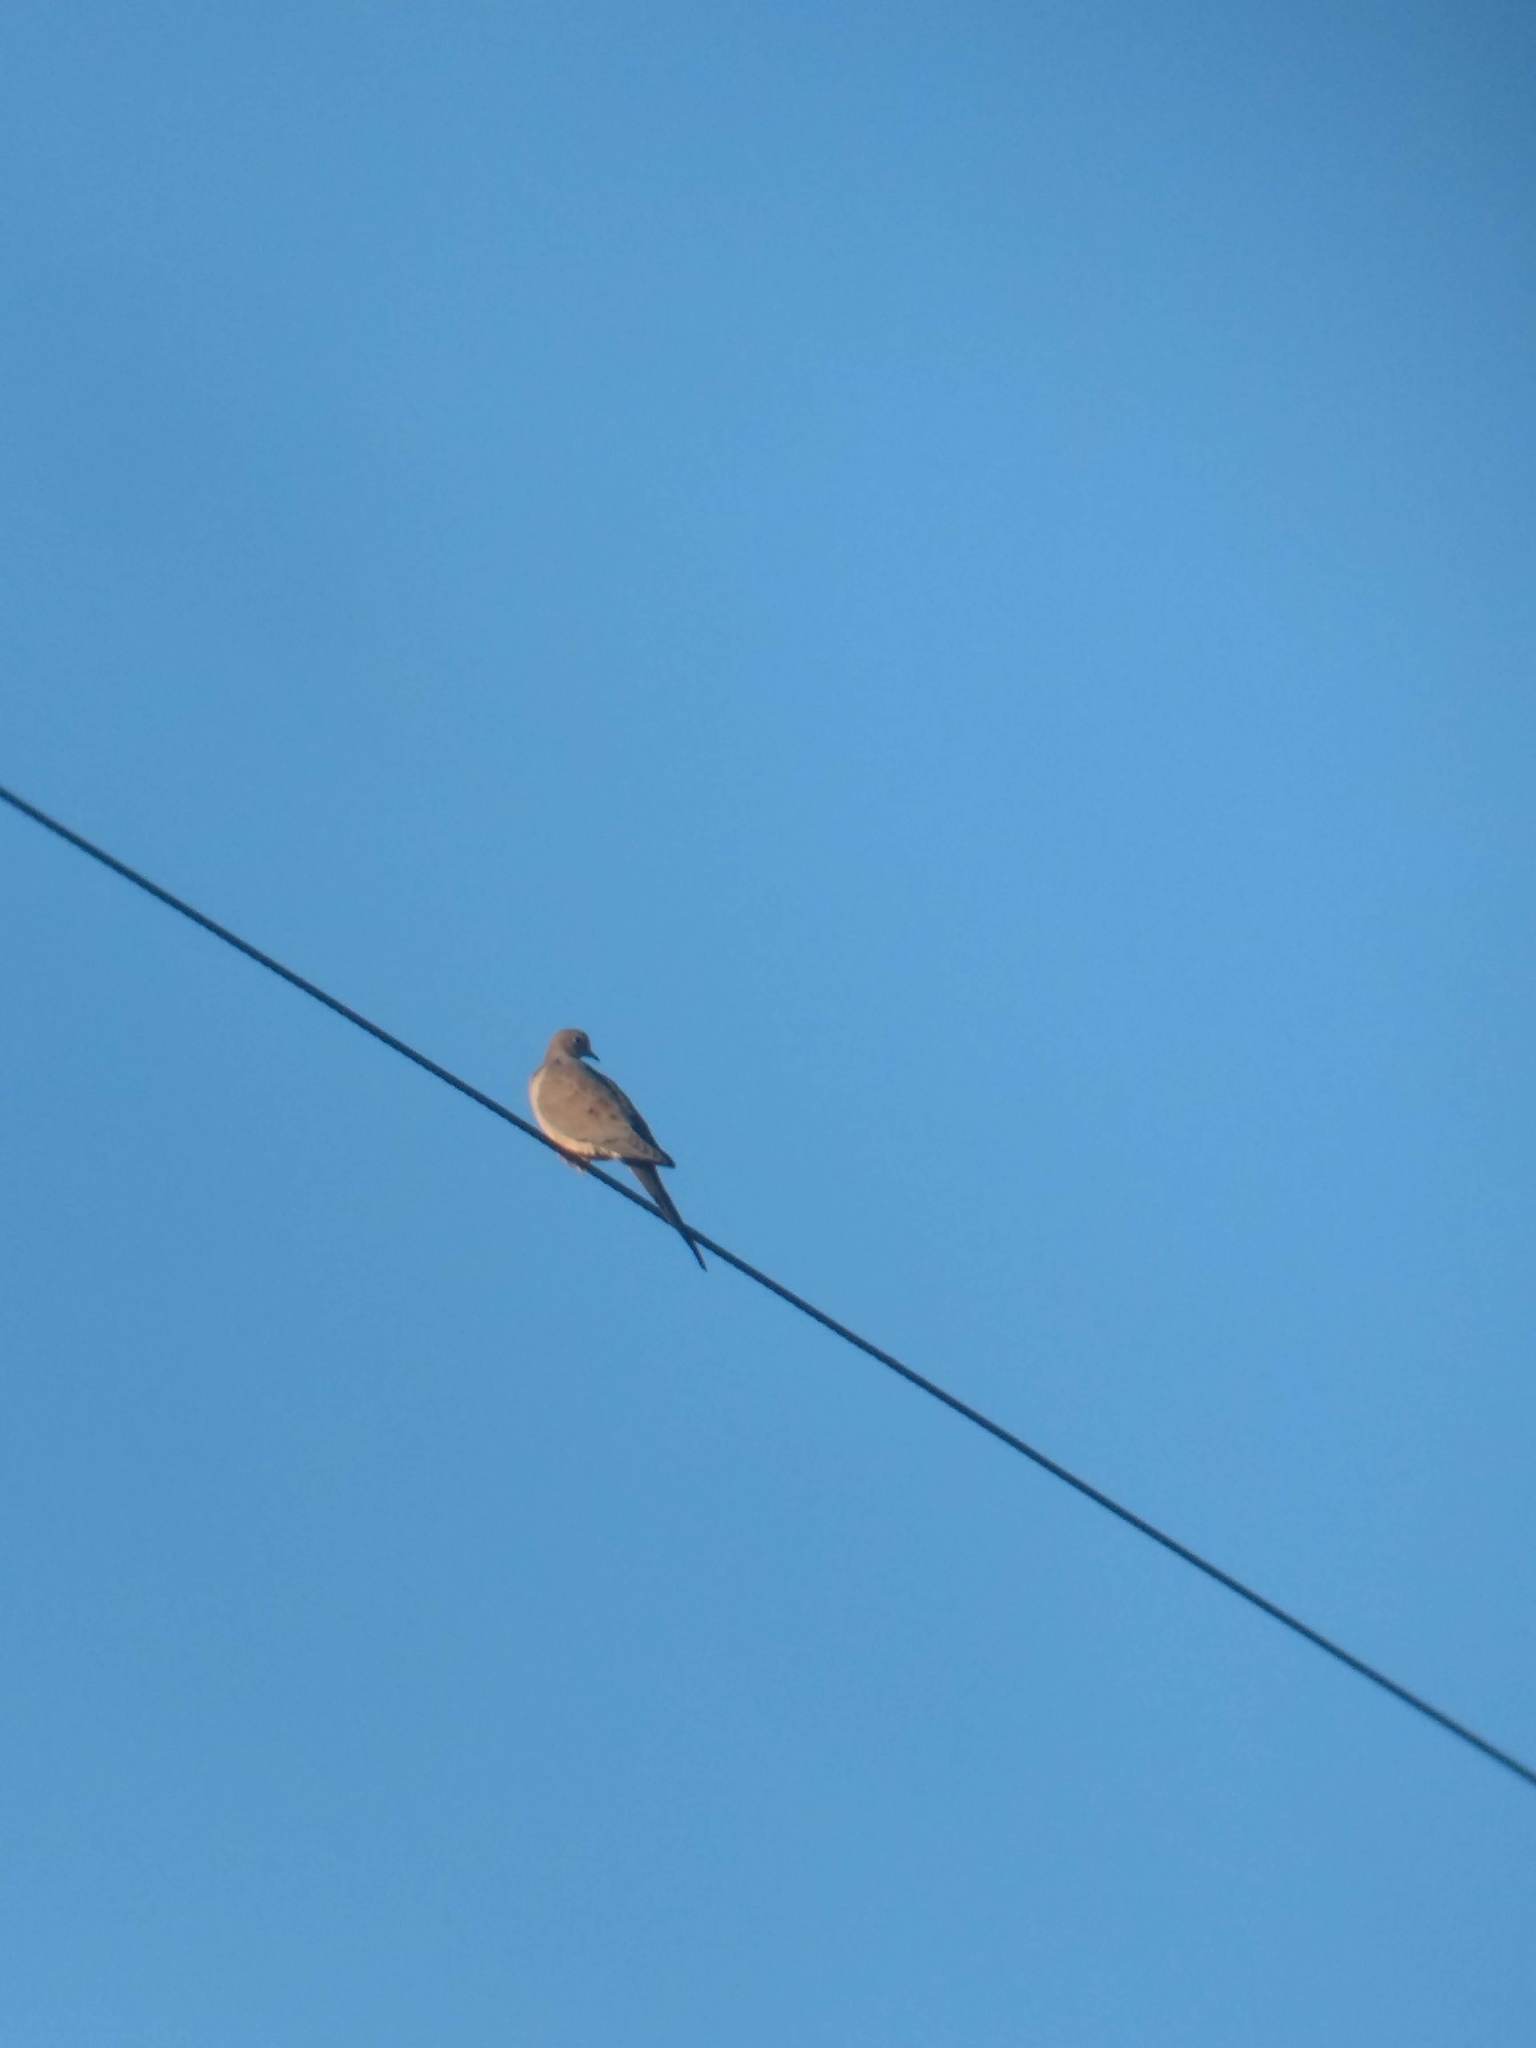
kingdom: Animalia
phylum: Chordata
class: Aves
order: Columbiformes
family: Columbidae
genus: Zenaida
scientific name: Zenaida macroura
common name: Mourning dove
